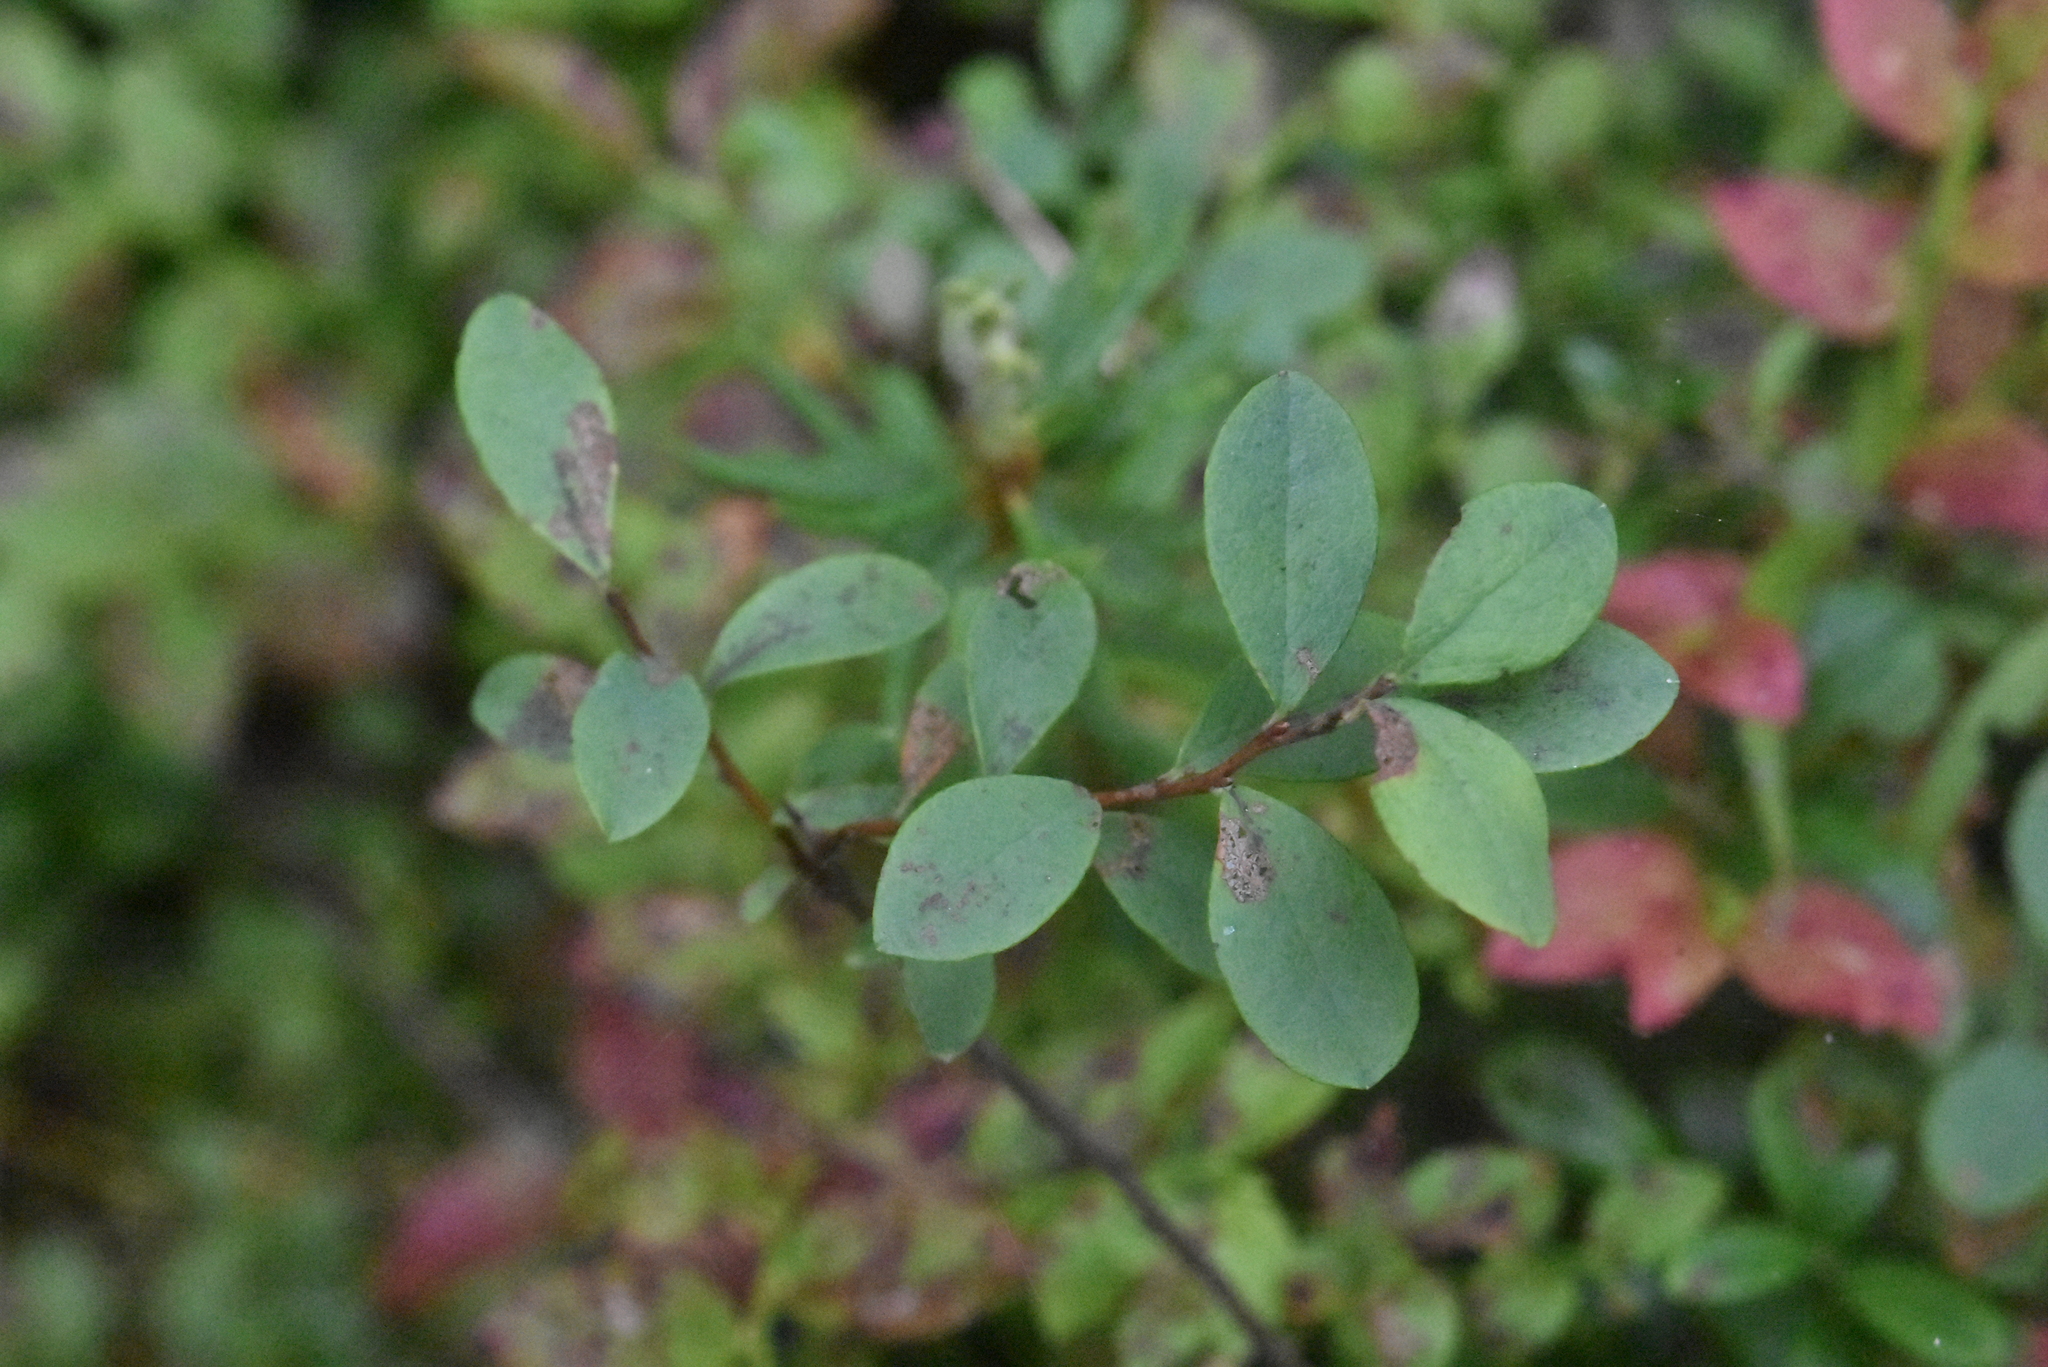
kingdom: Plantae
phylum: Tracheophyta
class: Magnoliopsida
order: Ericales
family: Ericaceae
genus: Vaccinium
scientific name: Vaccinium uliginosum
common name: Bog bilberry
